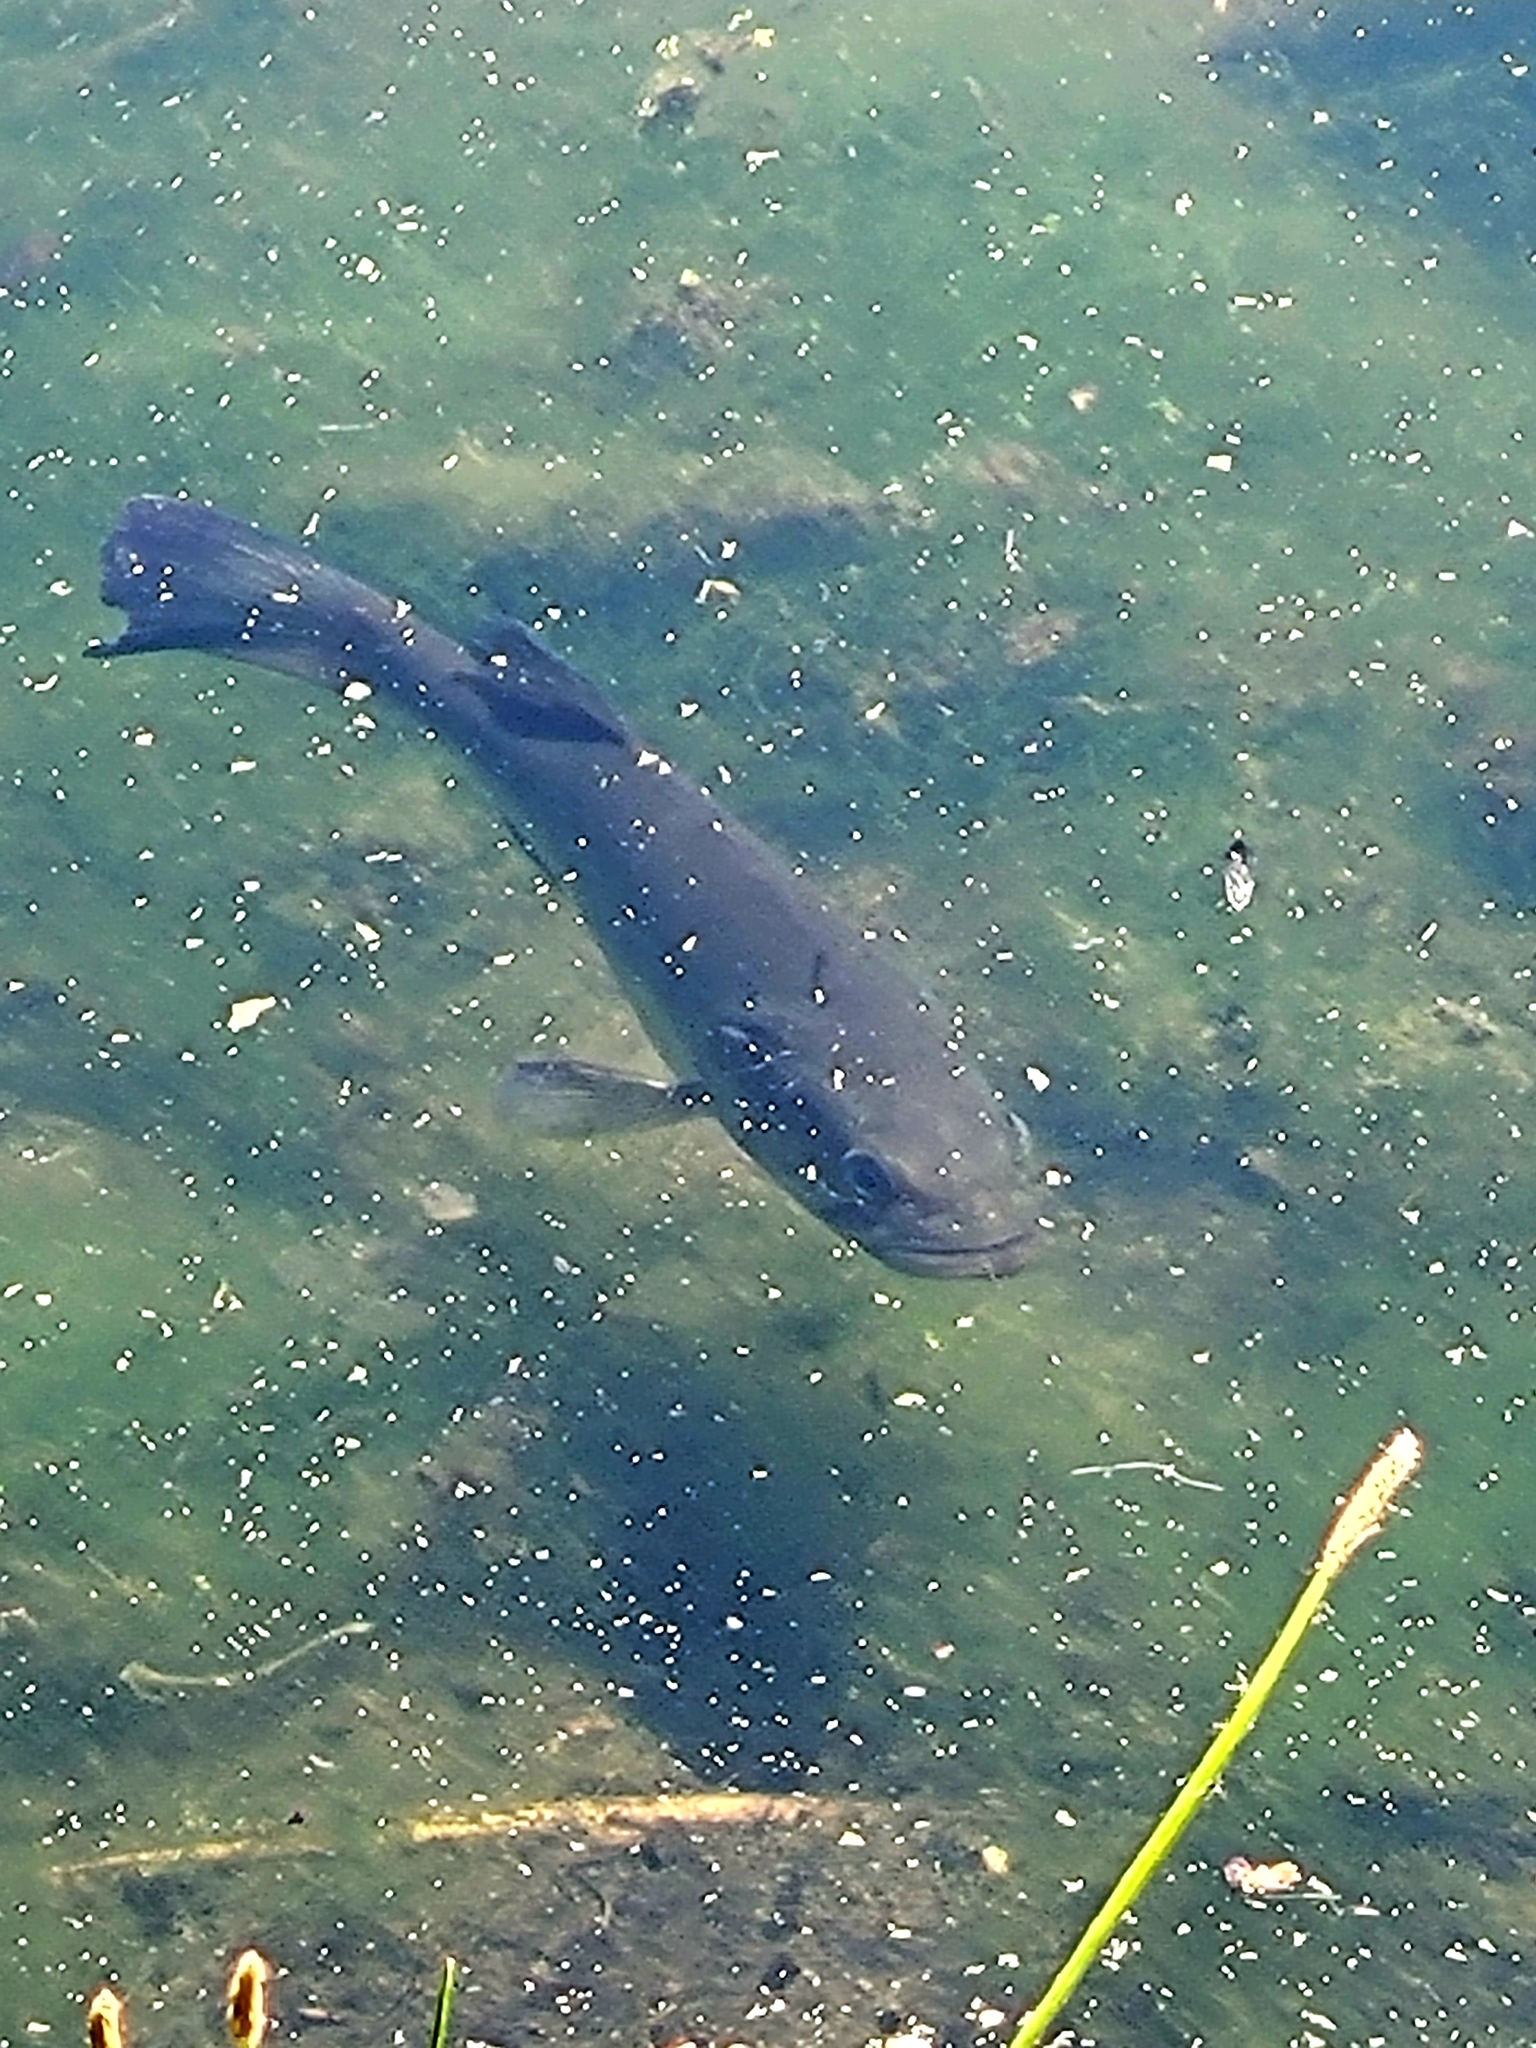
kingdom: Animalia
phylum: Chordata
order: Perciformes
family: Centrarchidae
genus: Micropterus
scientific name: Micropterus
